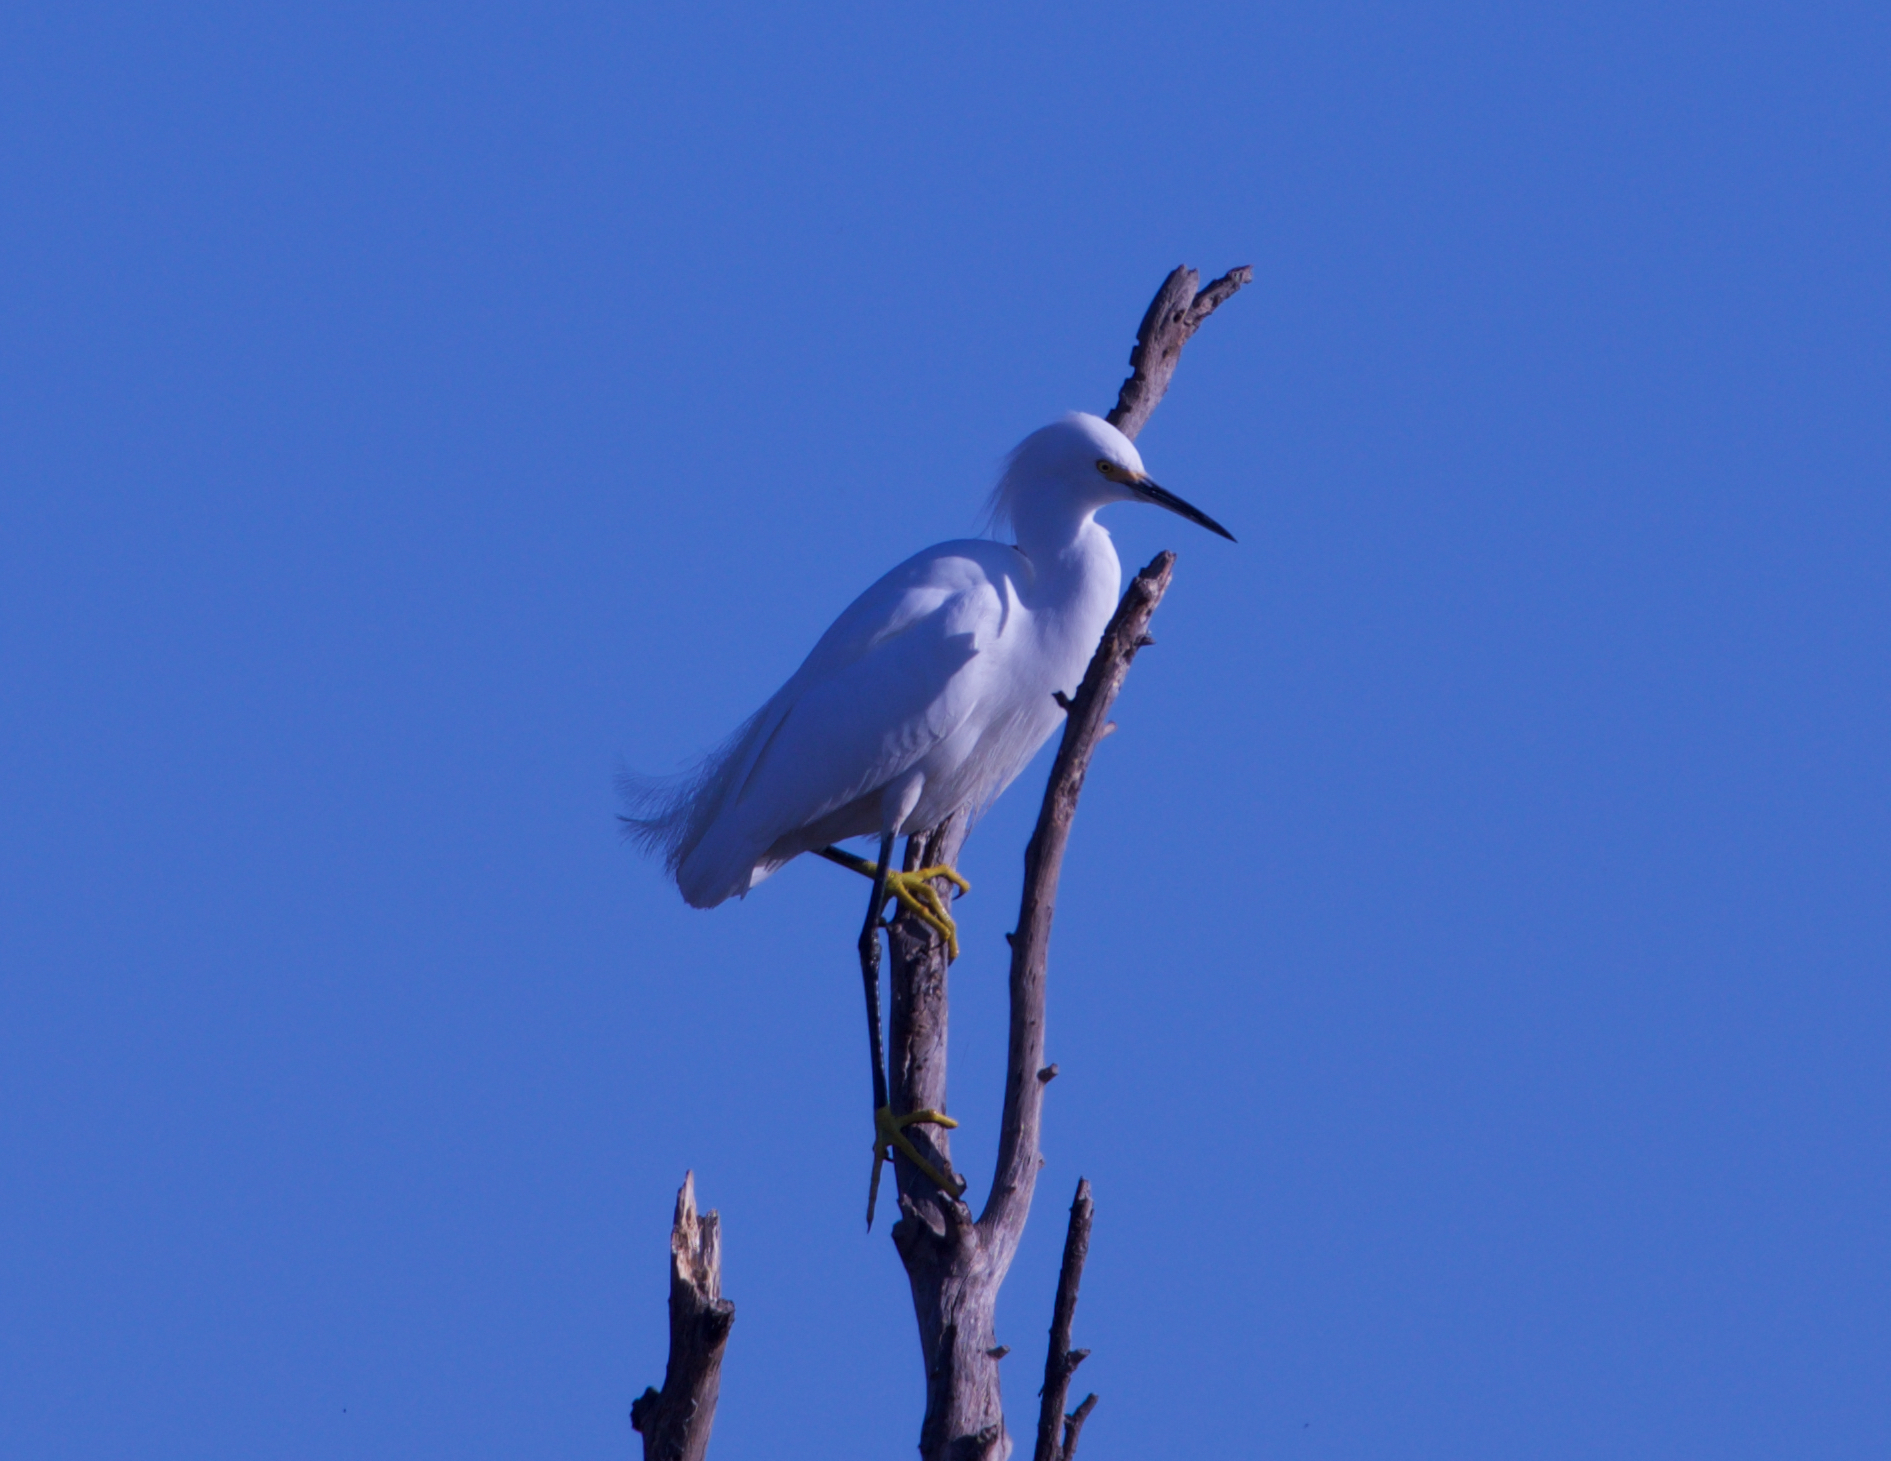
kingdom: Animalia
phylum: Chordata
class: Aves
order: Pelecaniformes
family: Ardeidae
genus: Egretta
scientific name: Egretta thula
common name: Snowy egret
